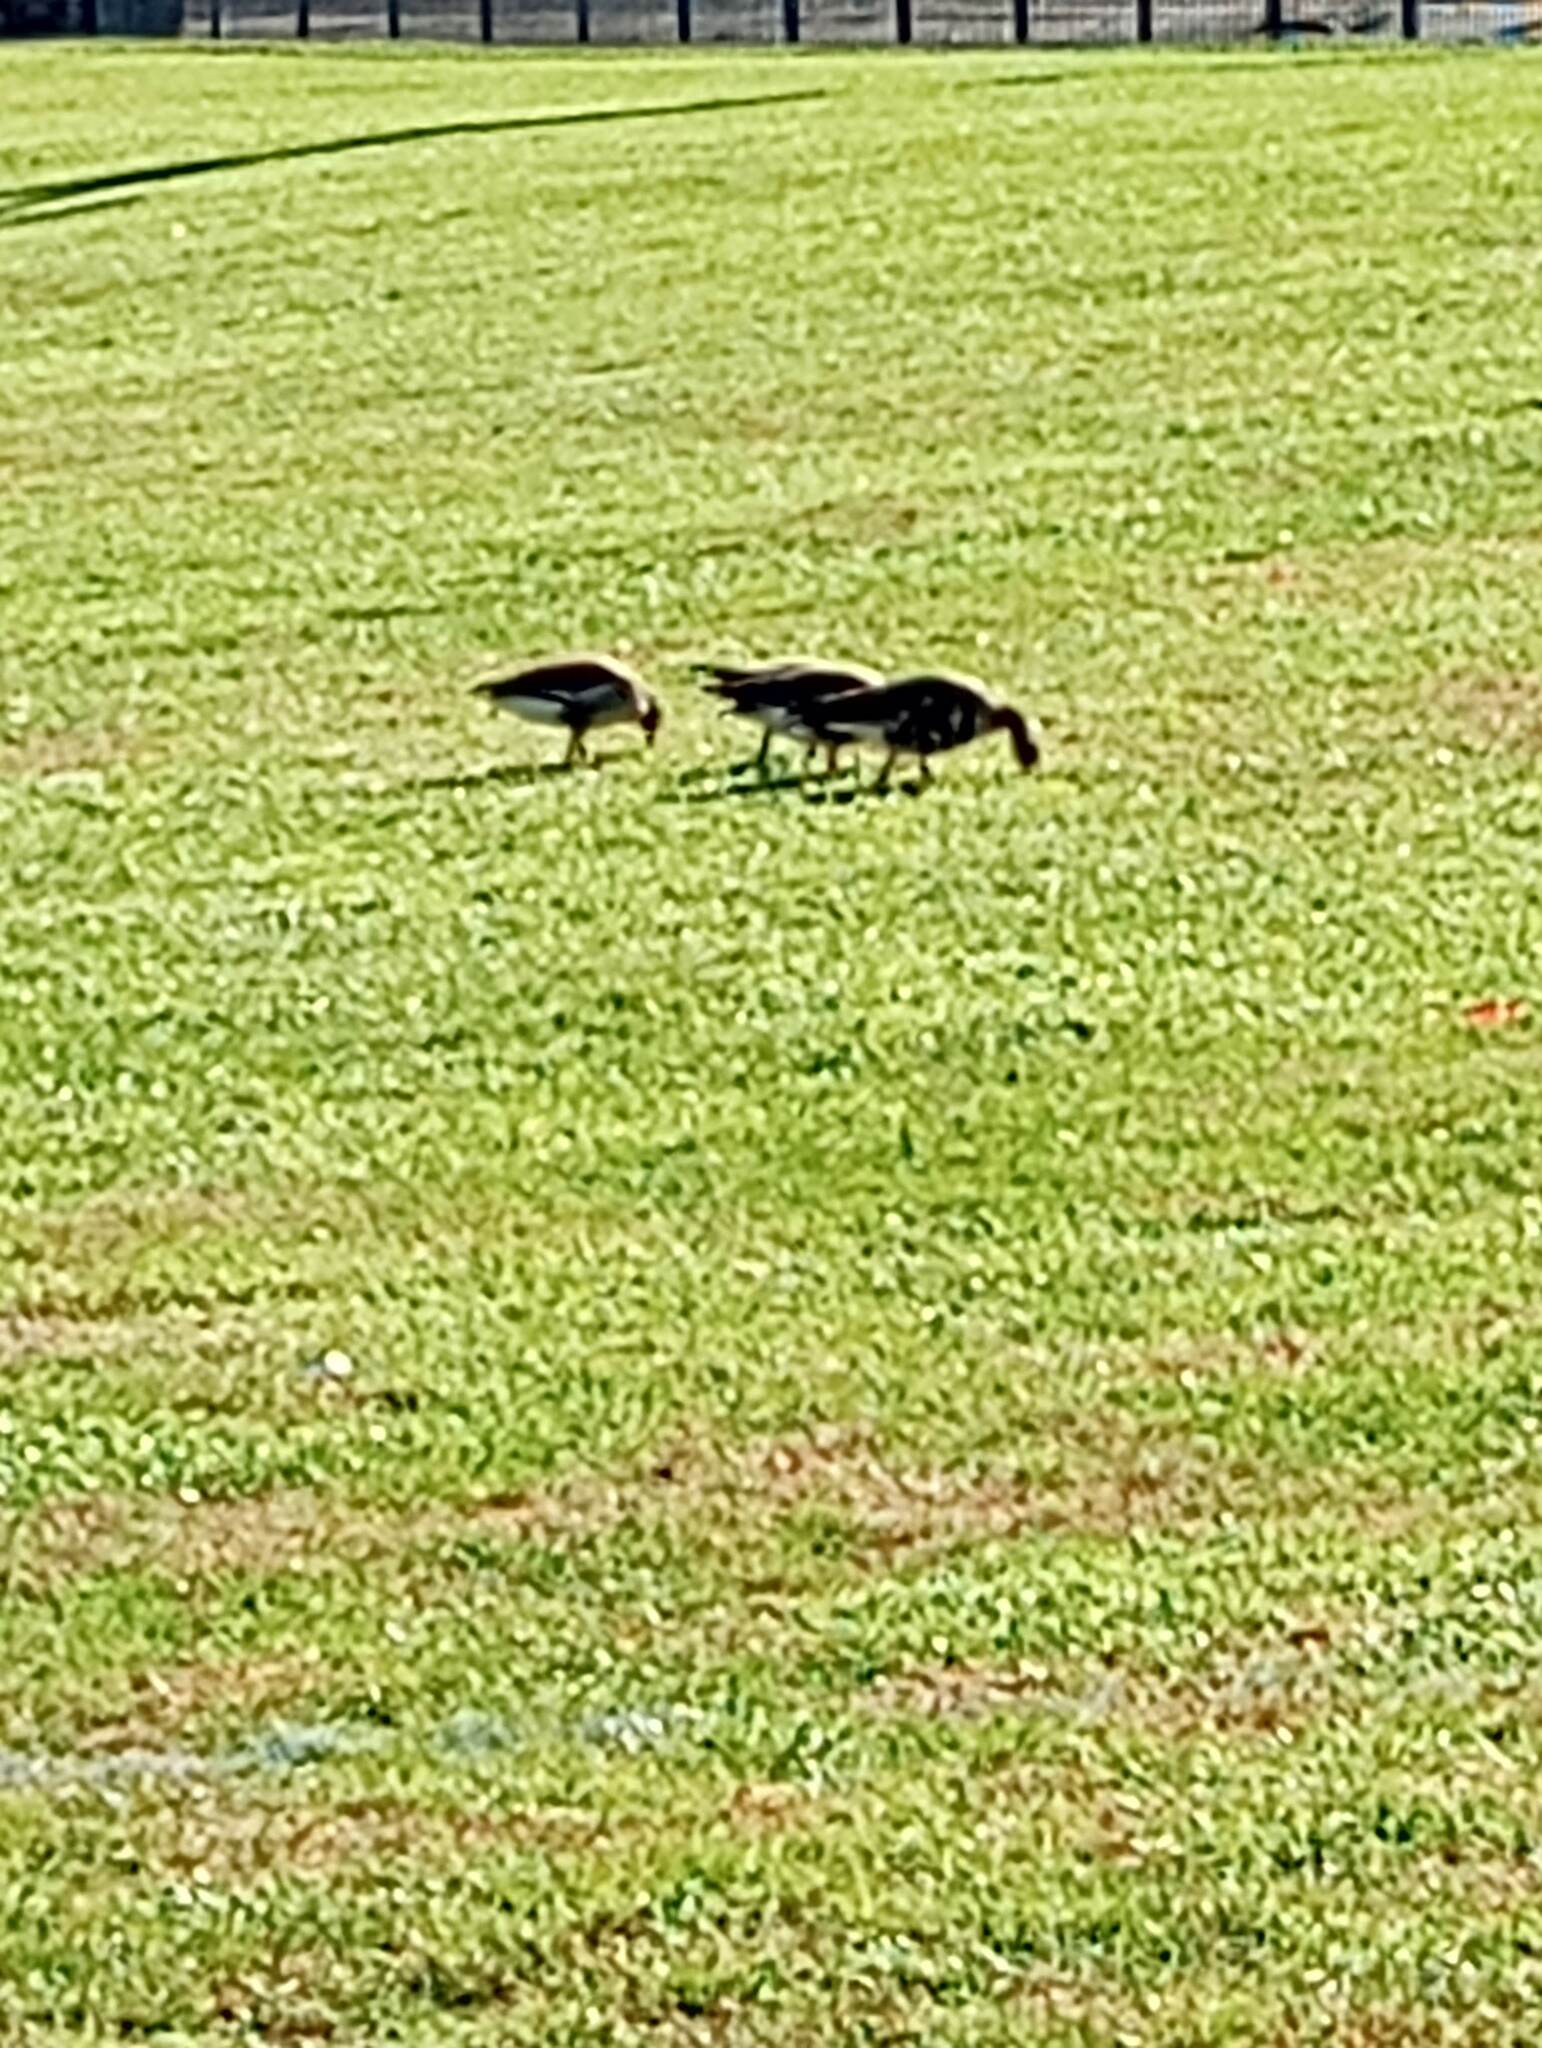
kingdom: Animalia
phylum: Chordata
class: Aves
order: Anseriformes
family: Anatidae
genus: Anser
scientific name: Anser albifrons
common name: Greater white-fronted goose
